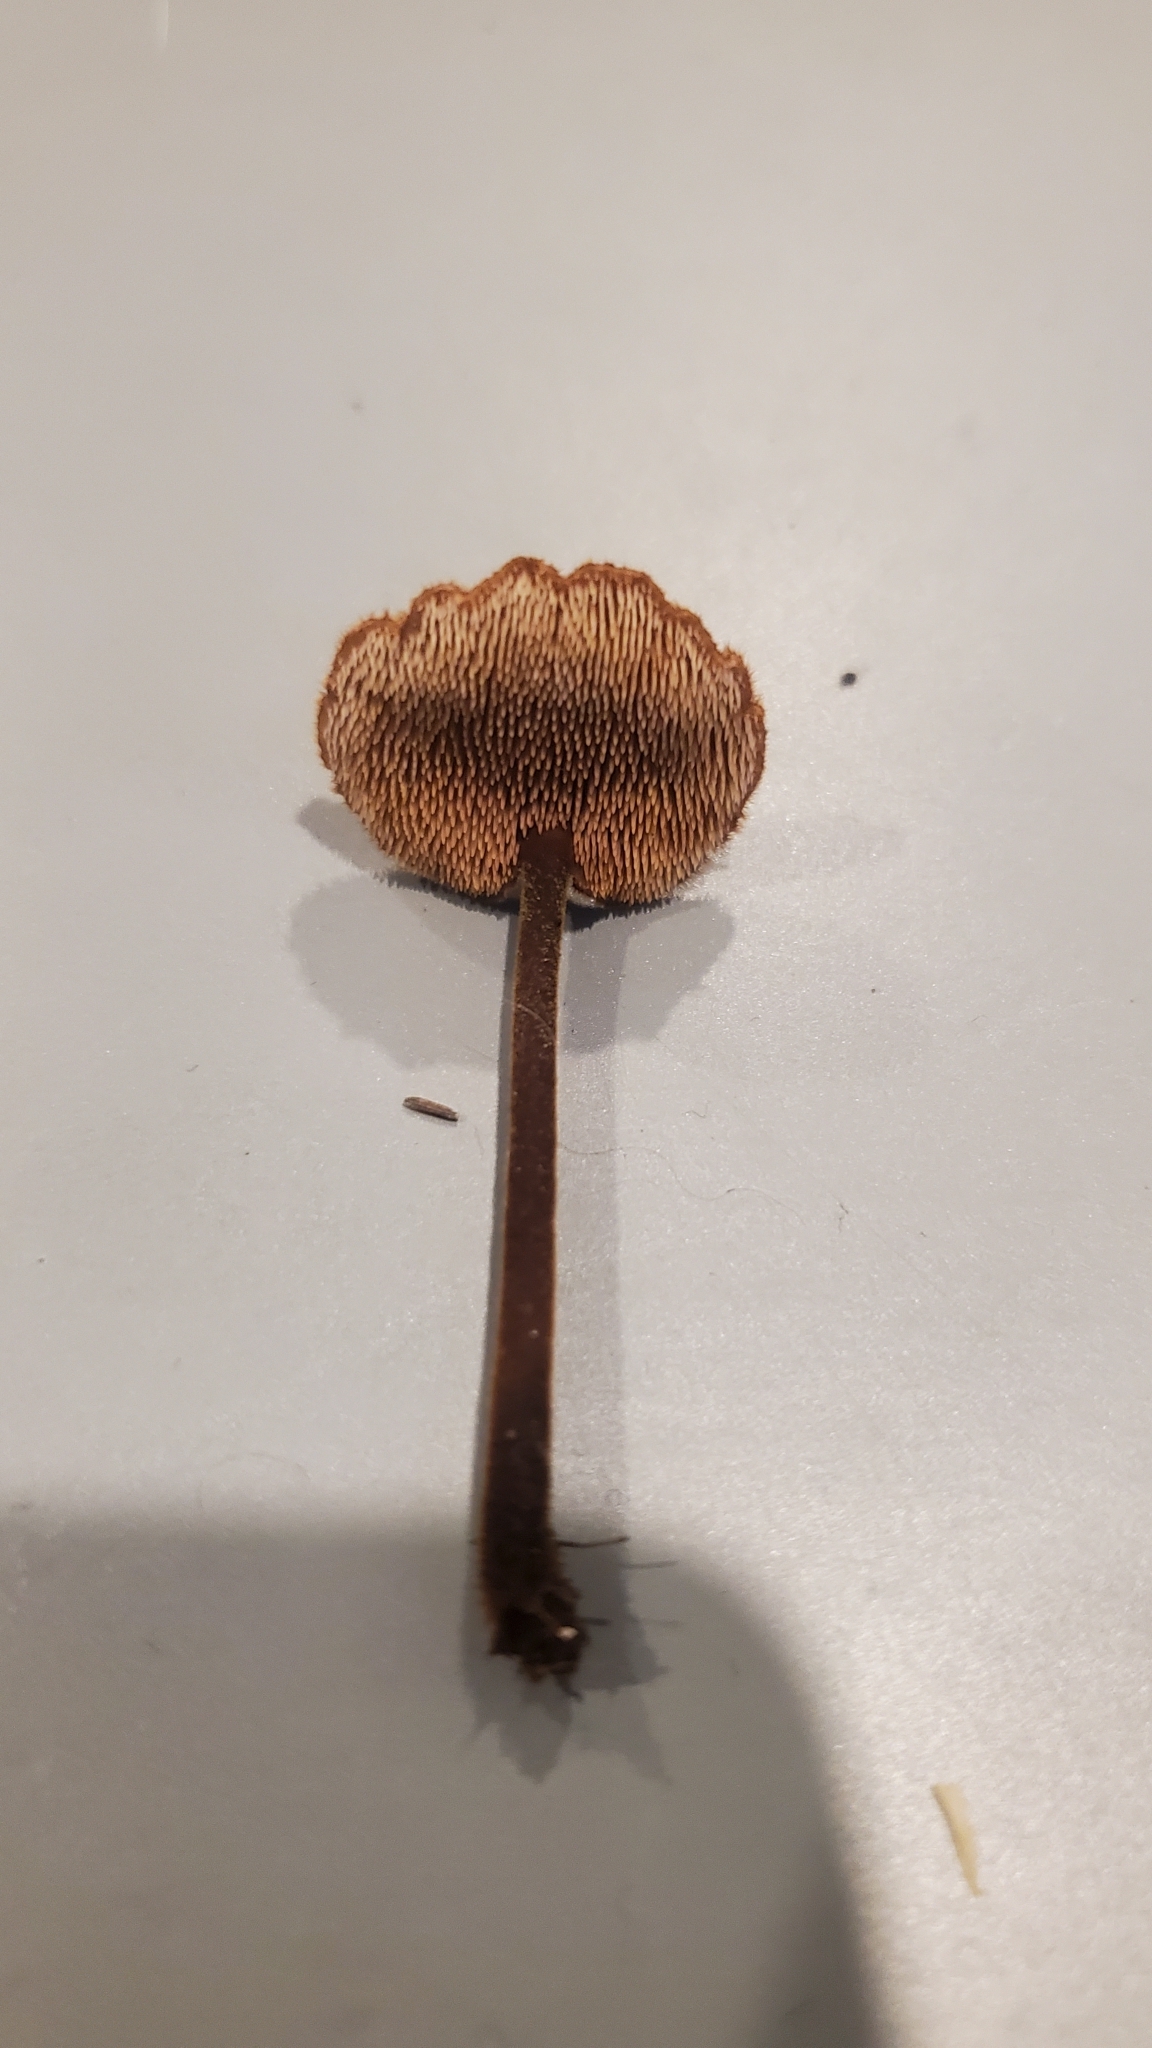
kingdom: Fungi
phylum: Basidiomycota
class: Agaricomycetes
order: Russulales
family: Auriscalpiaceae
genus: Auriscalpium
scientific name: Auriscalpium vulgare
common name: Earpick fungus
